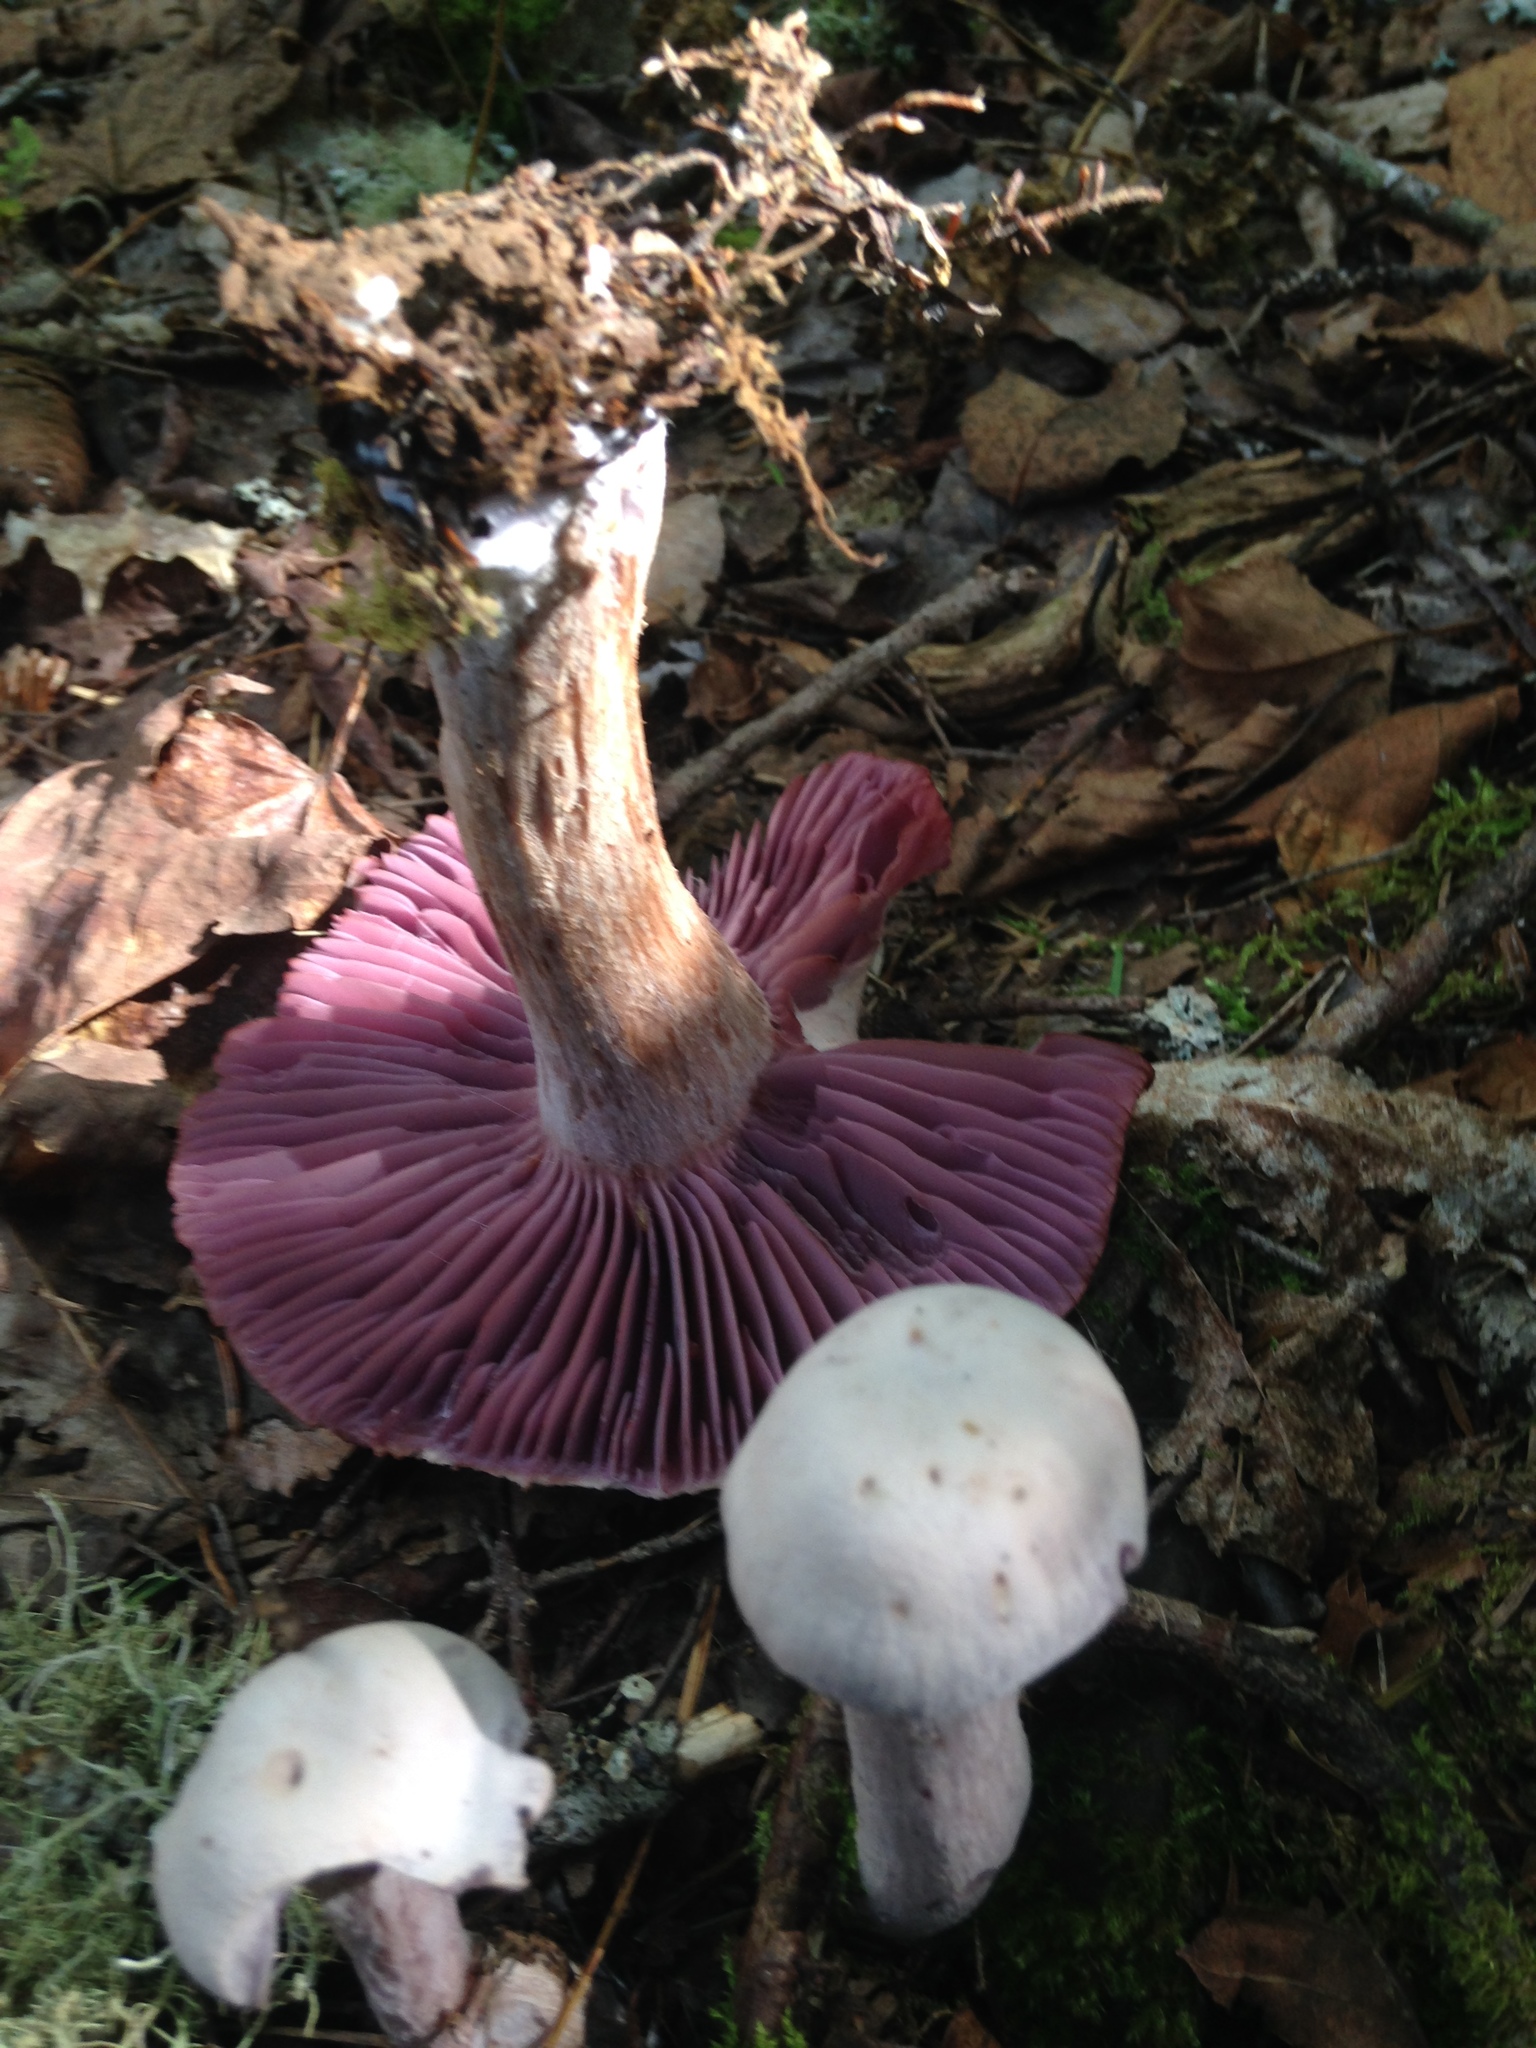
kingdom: Fungi
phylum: Basidiomycota
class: Agaricomycetes
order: Agaricales
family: Hydnangiaceae
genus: Laccaria
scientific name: Laccaria ochropurpurea
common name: Purple laccaria
